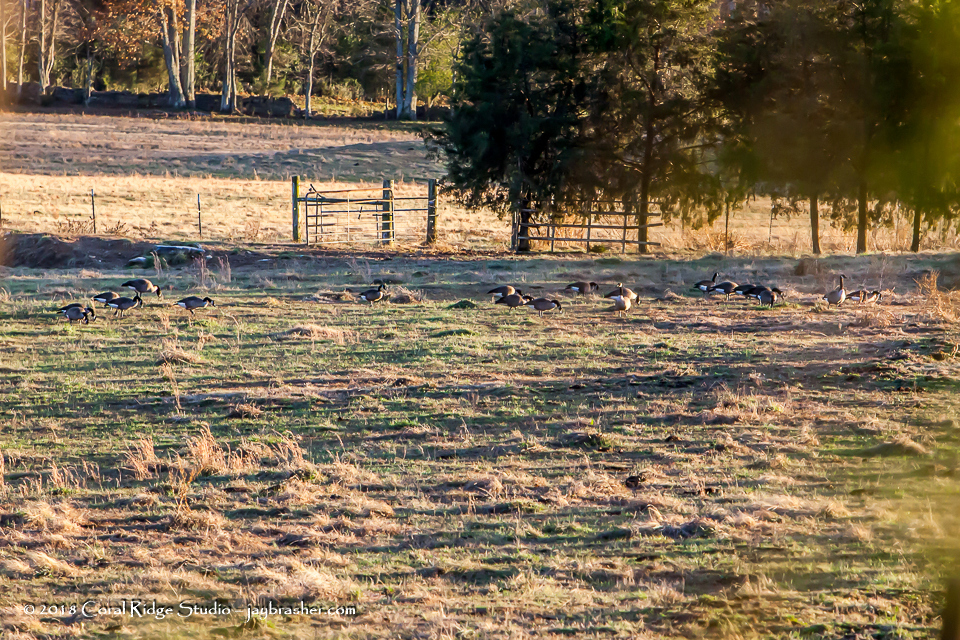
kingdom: Animalia
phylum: Chordata
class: Aves
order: Anseriformes
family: Anatidae
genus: Branta
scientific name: Branta canadensis
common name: Canada goose
